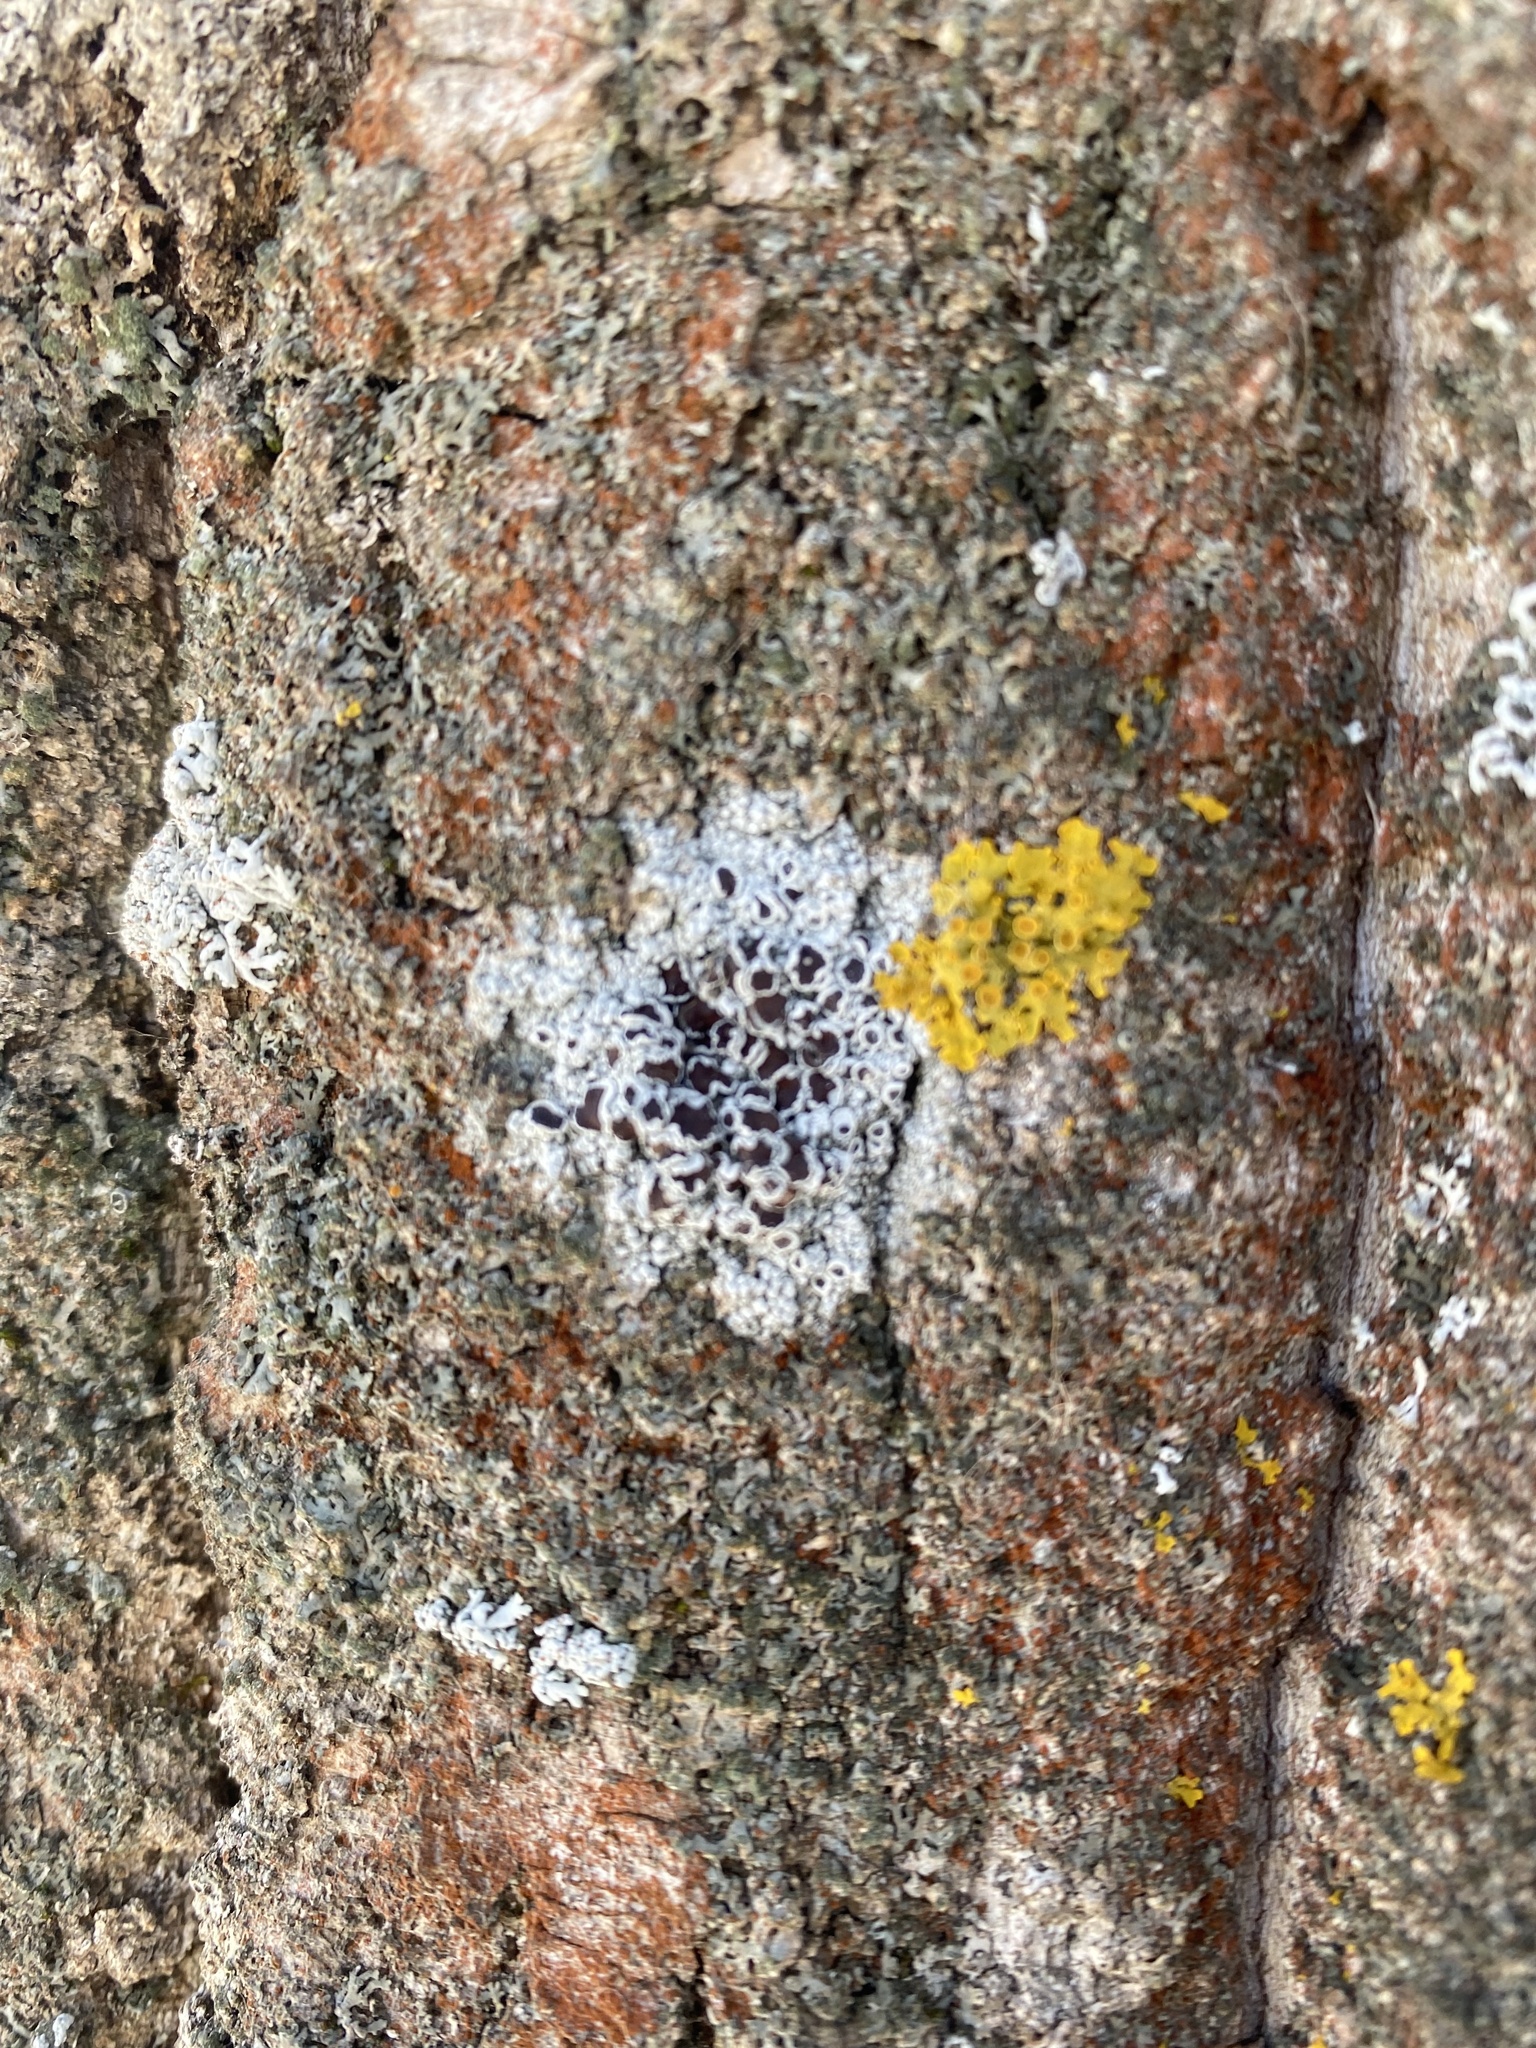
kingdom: Fungi
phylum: Ascomycota
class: Lecanoromycetes
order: Lecanorales
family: Lecanoraceae
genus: Lecanora
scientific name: Lecanora albella
